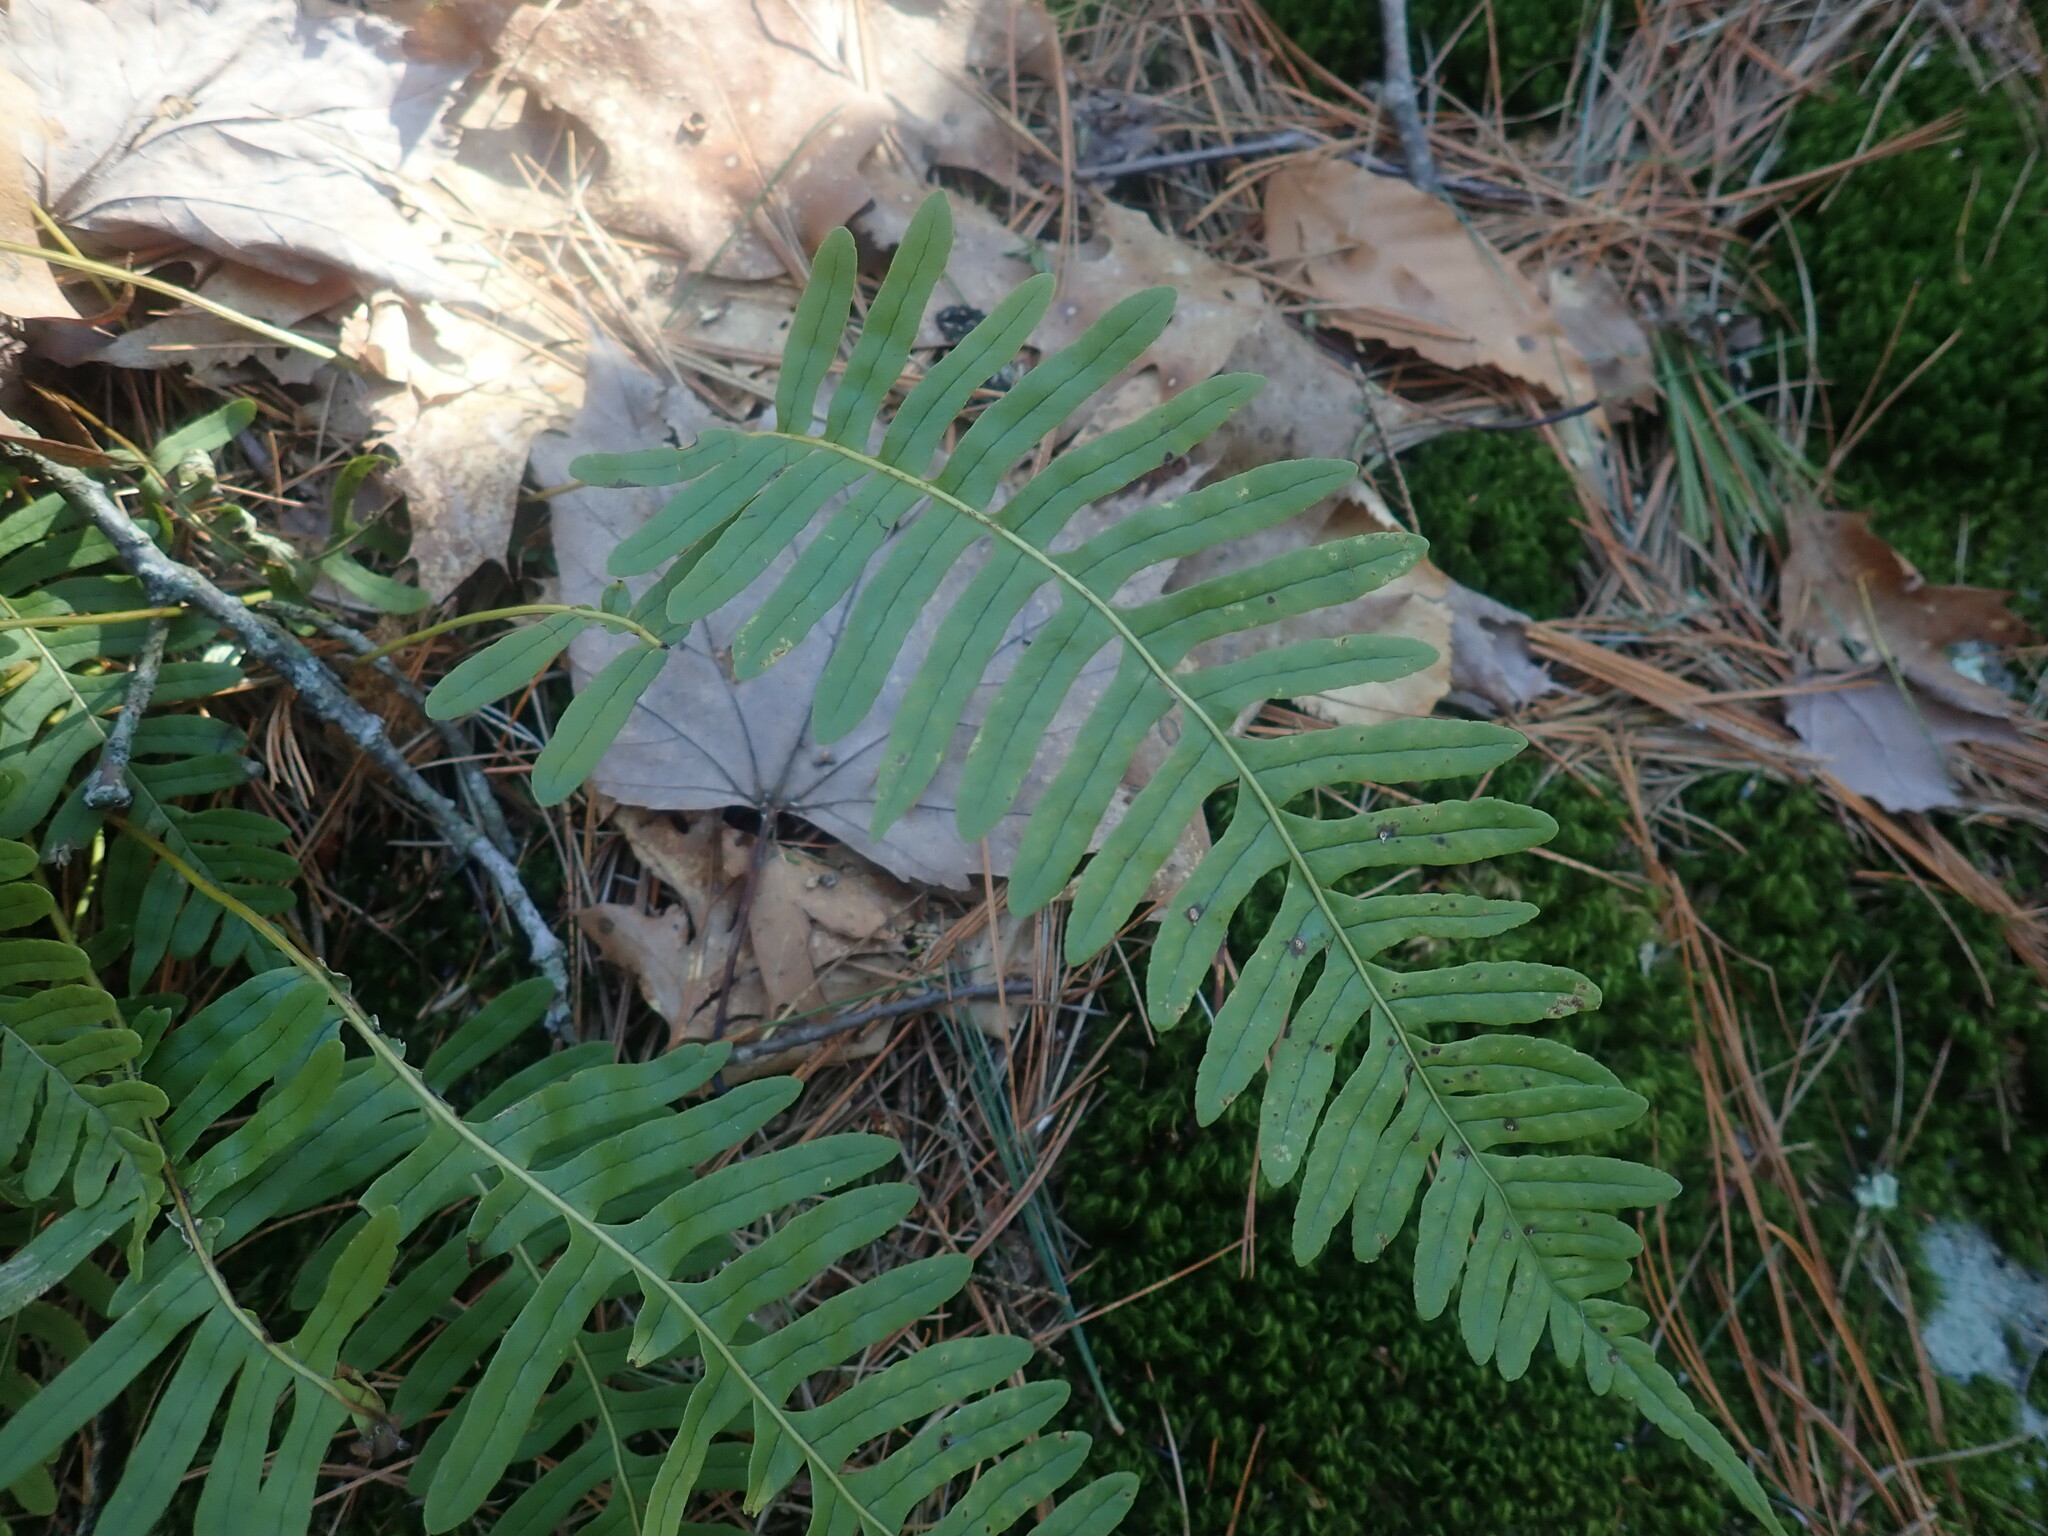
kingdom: Plantae
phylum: Tracheophyta
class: Polypodiopsida
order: Polypodiales
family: Polypodiaceae
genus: Polypodium
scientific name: Polypodium
